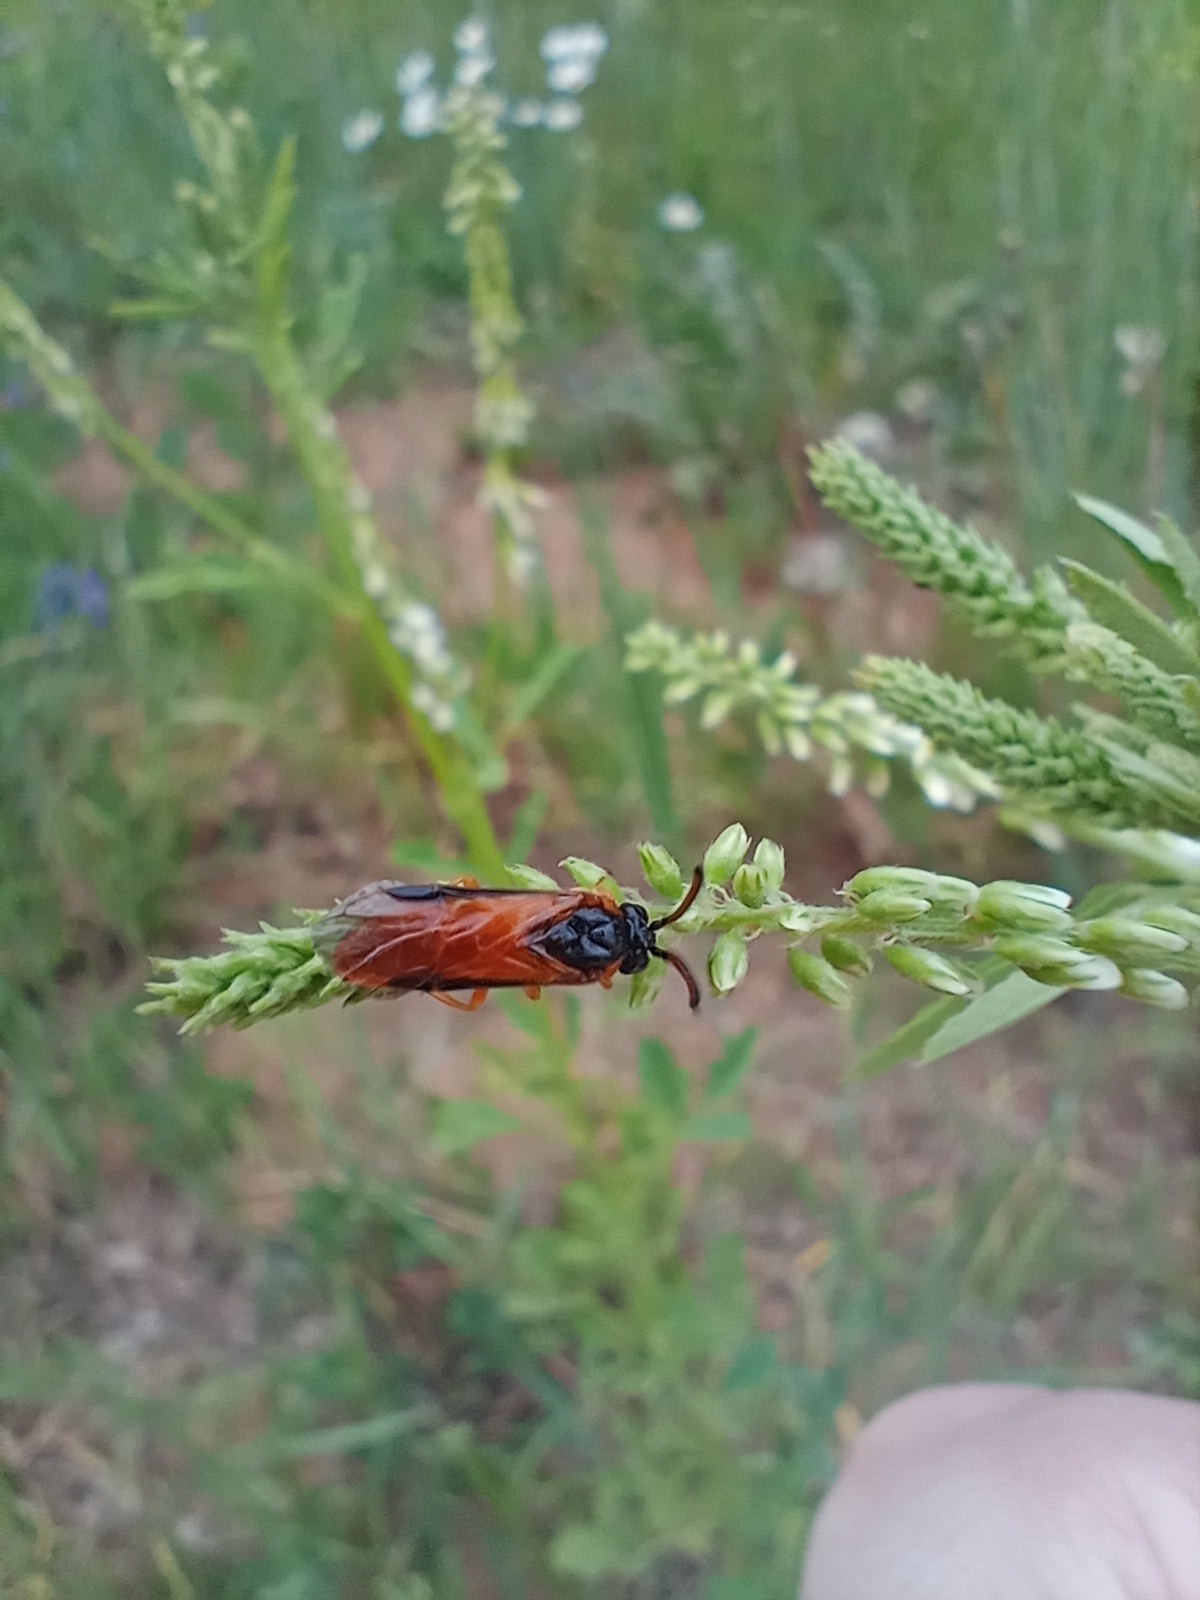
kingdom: Animalia
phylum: Arthropoda
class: Insecta
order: Hymenoptera
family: Argidae
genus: Arge
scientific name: Arge ochropus
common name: Argid sawfly
